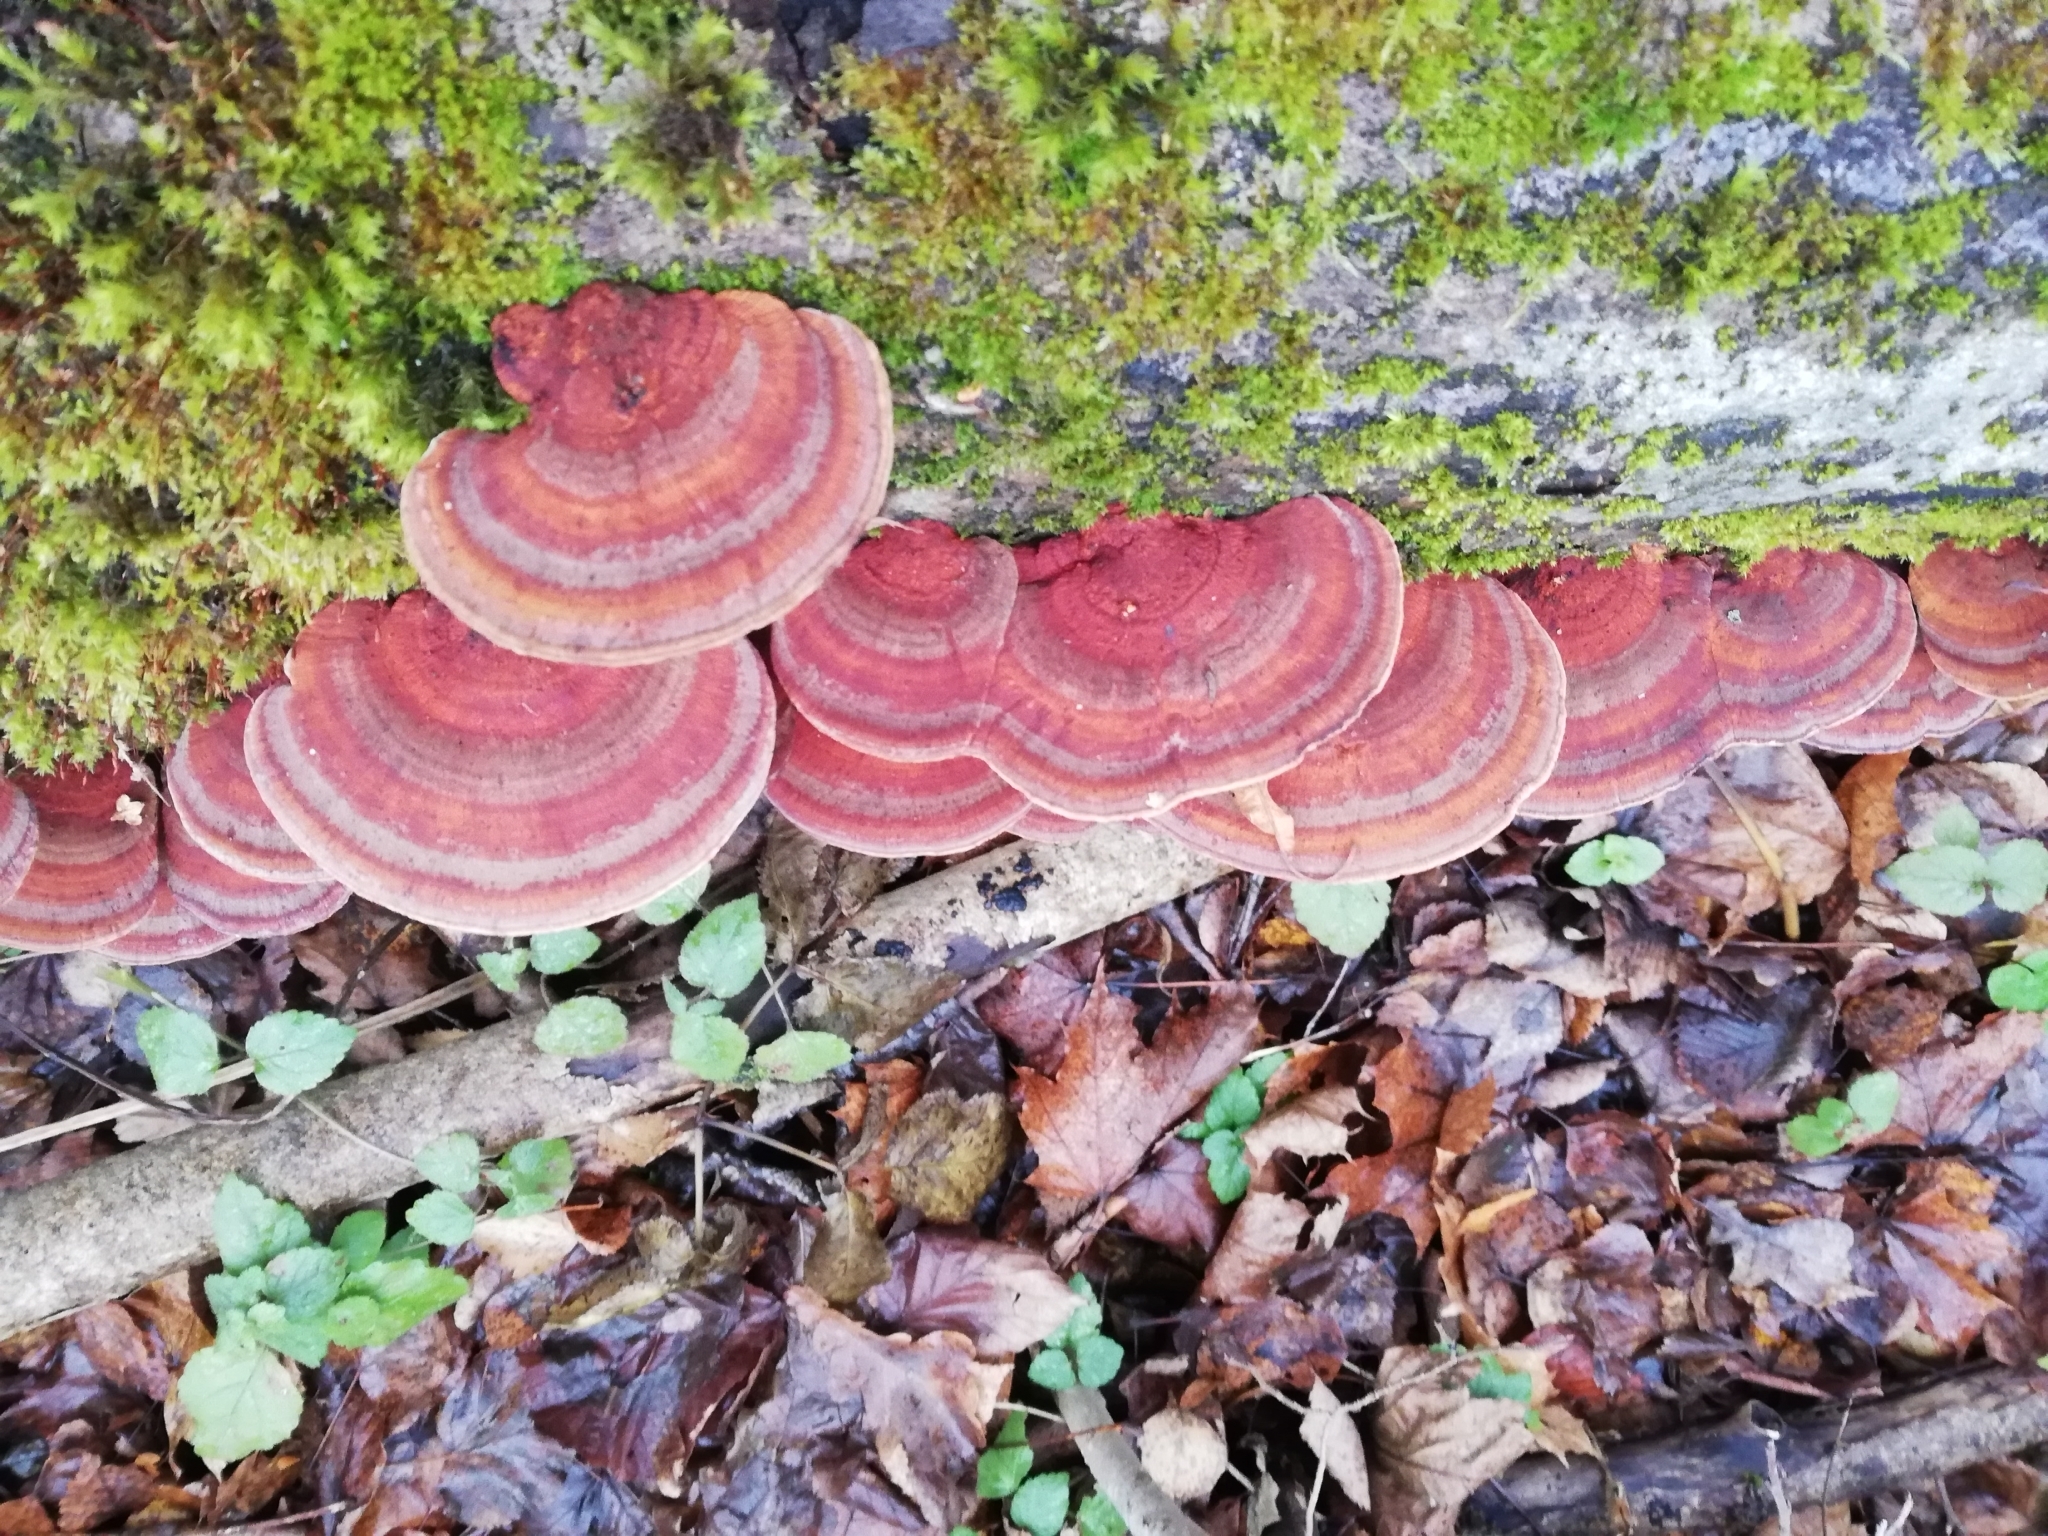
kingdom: Fungi
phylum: Basidiomycota
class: Agaricomycetes
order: Polyporales
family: Polyporaceae
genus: Daedaleopsis
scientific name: Daedaleopsis tricolor
